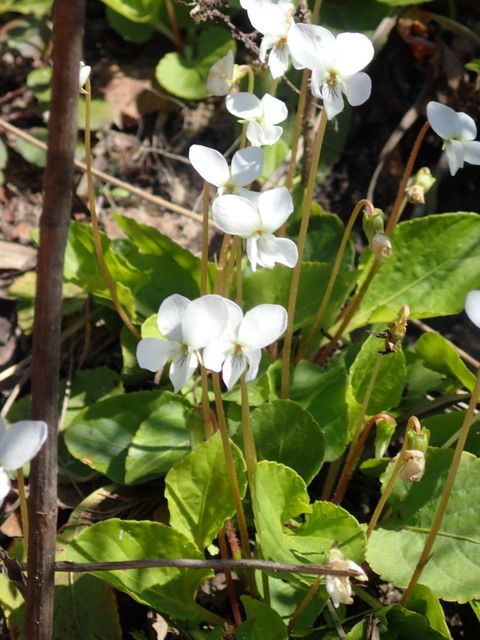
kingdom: Plantae
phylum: Tracheophyta
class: Magnoliopsida
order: Malpighiales
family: Violaceae
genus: Viola
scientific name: Viola primulifolia
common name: Primrose-leaf violet
